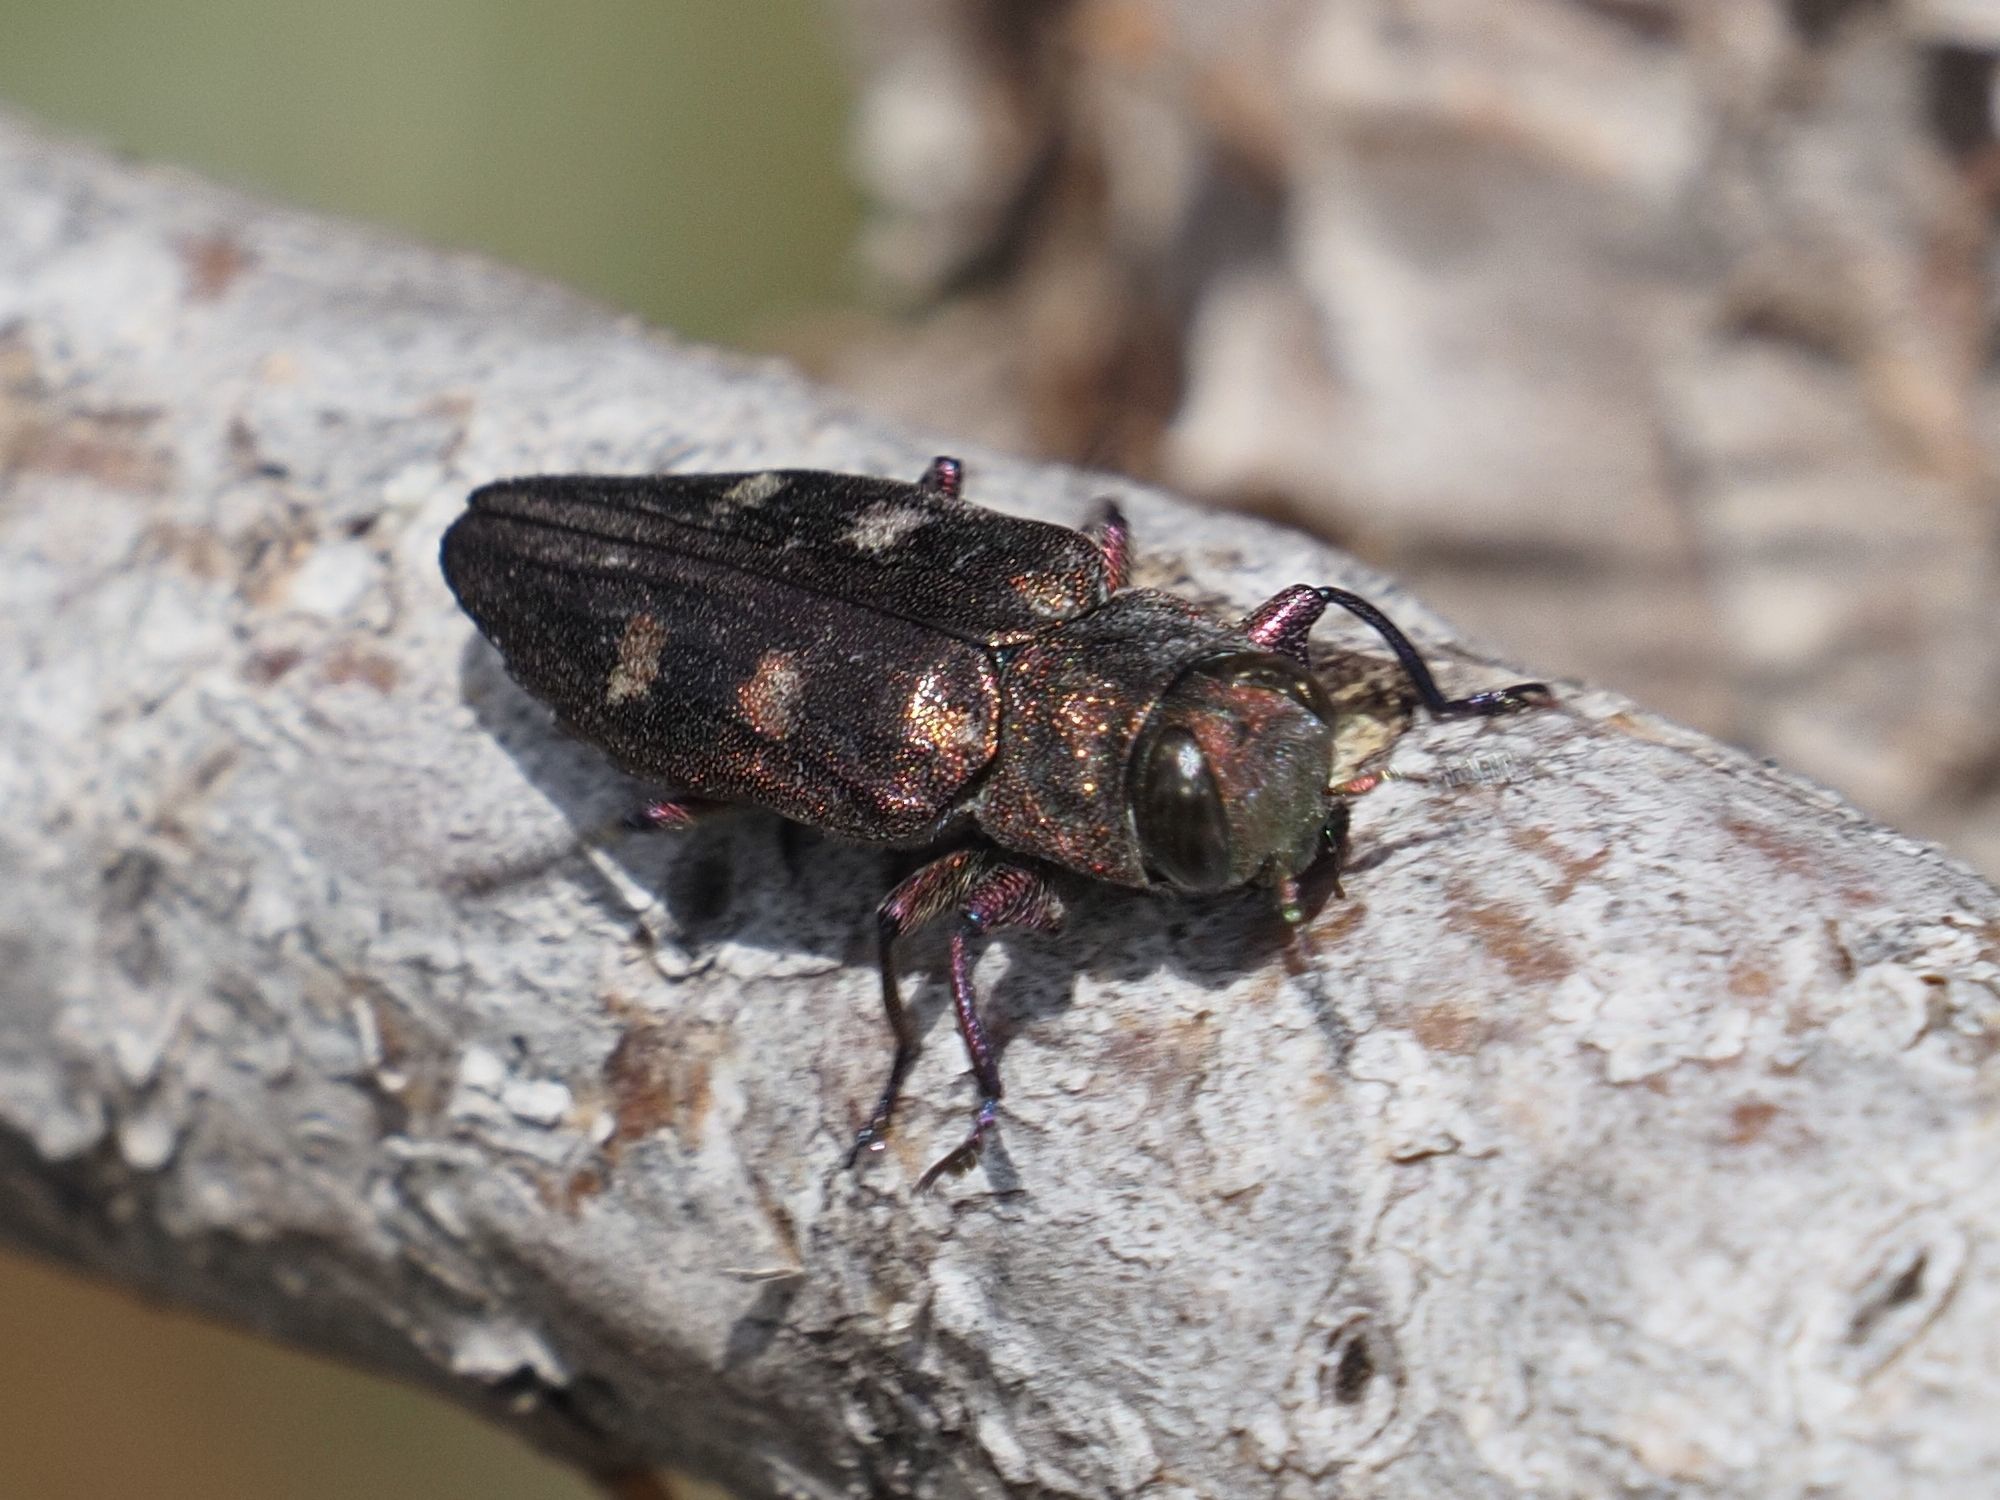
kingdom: Animalia
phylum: Arthropoda
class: Insecta
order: Coleoptera
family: Buprestidae
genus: Chrysobothris
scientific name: Chrysobothris igniventris
